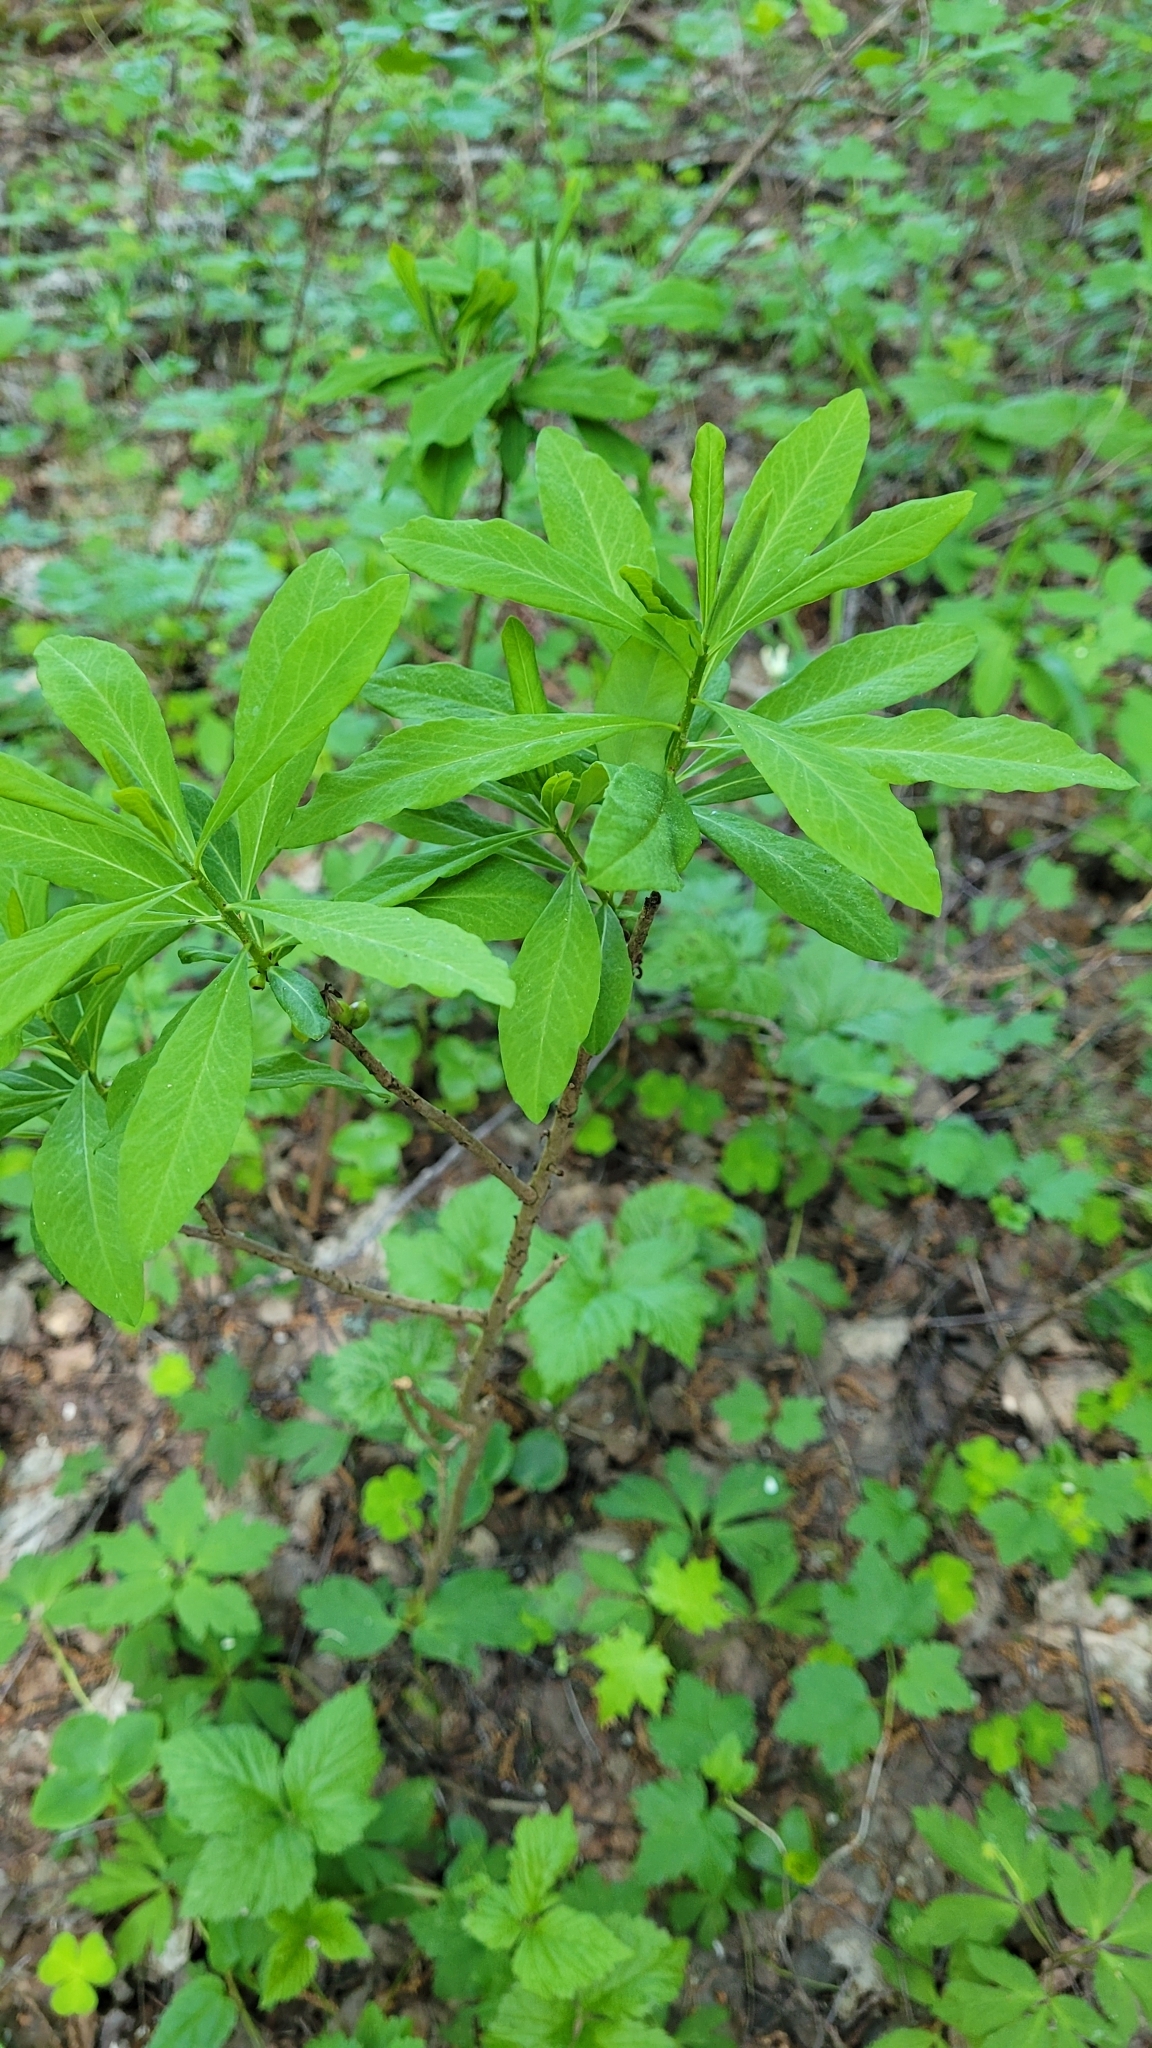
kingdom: Plantae
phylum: Tracheophyta
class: Magnoliopsida
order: Malvales
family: Thymelaeaceae
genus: Daphne
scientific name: Daphne mezereum
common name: Mezereon
